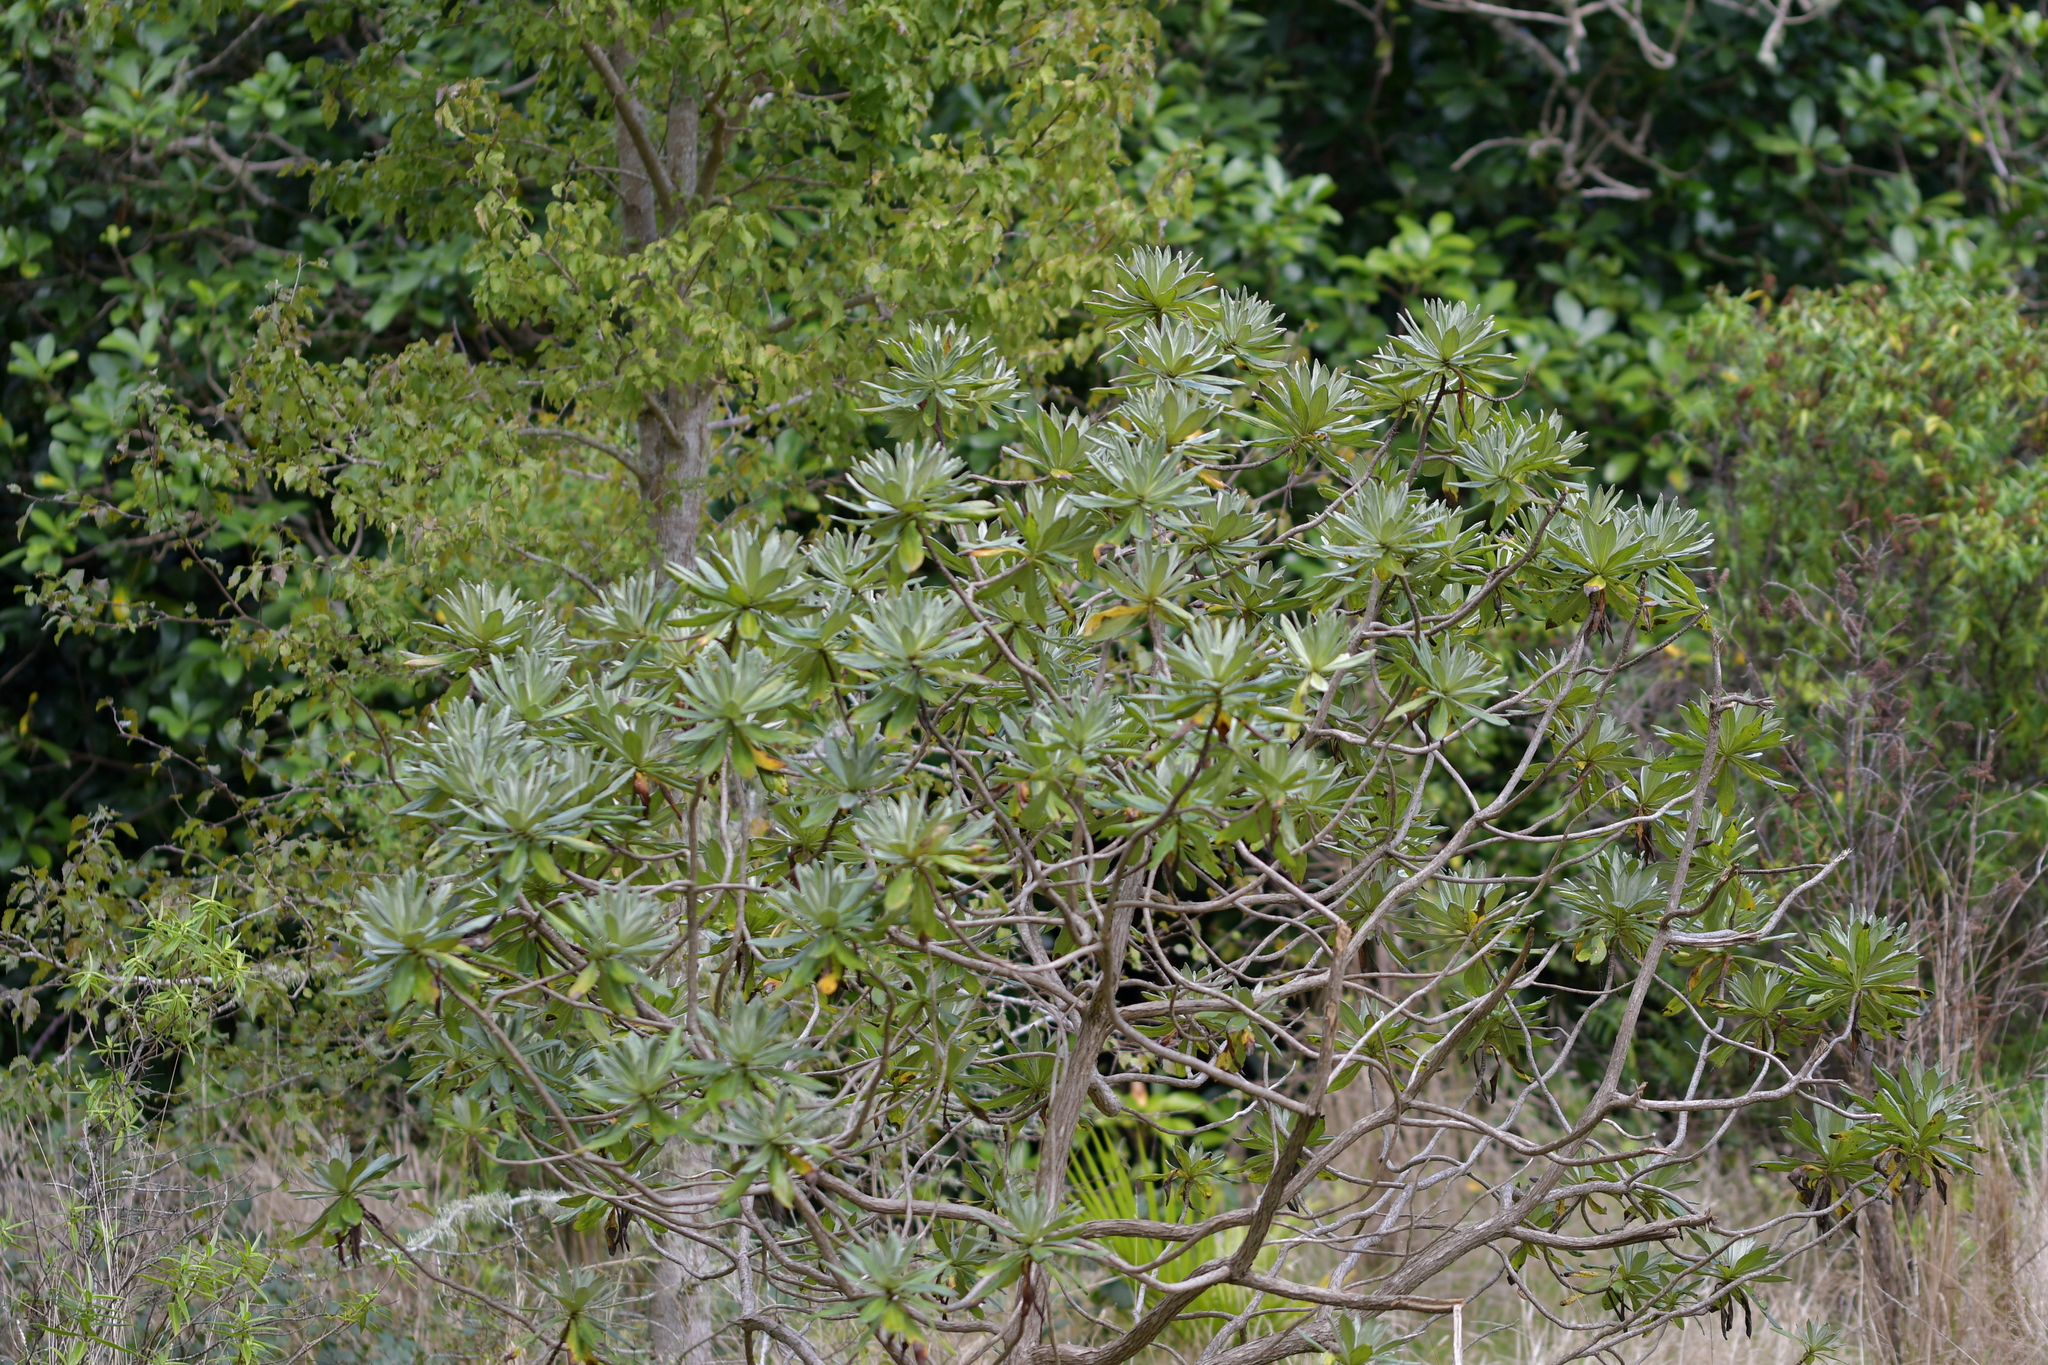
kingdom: Plantae
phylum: Tracheophyta
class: Magnoliopsida
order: Asterales
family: Asteraceae
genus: Brachyglottis
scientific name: Brachyglottis huntii
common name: Chatham island christmas tree
